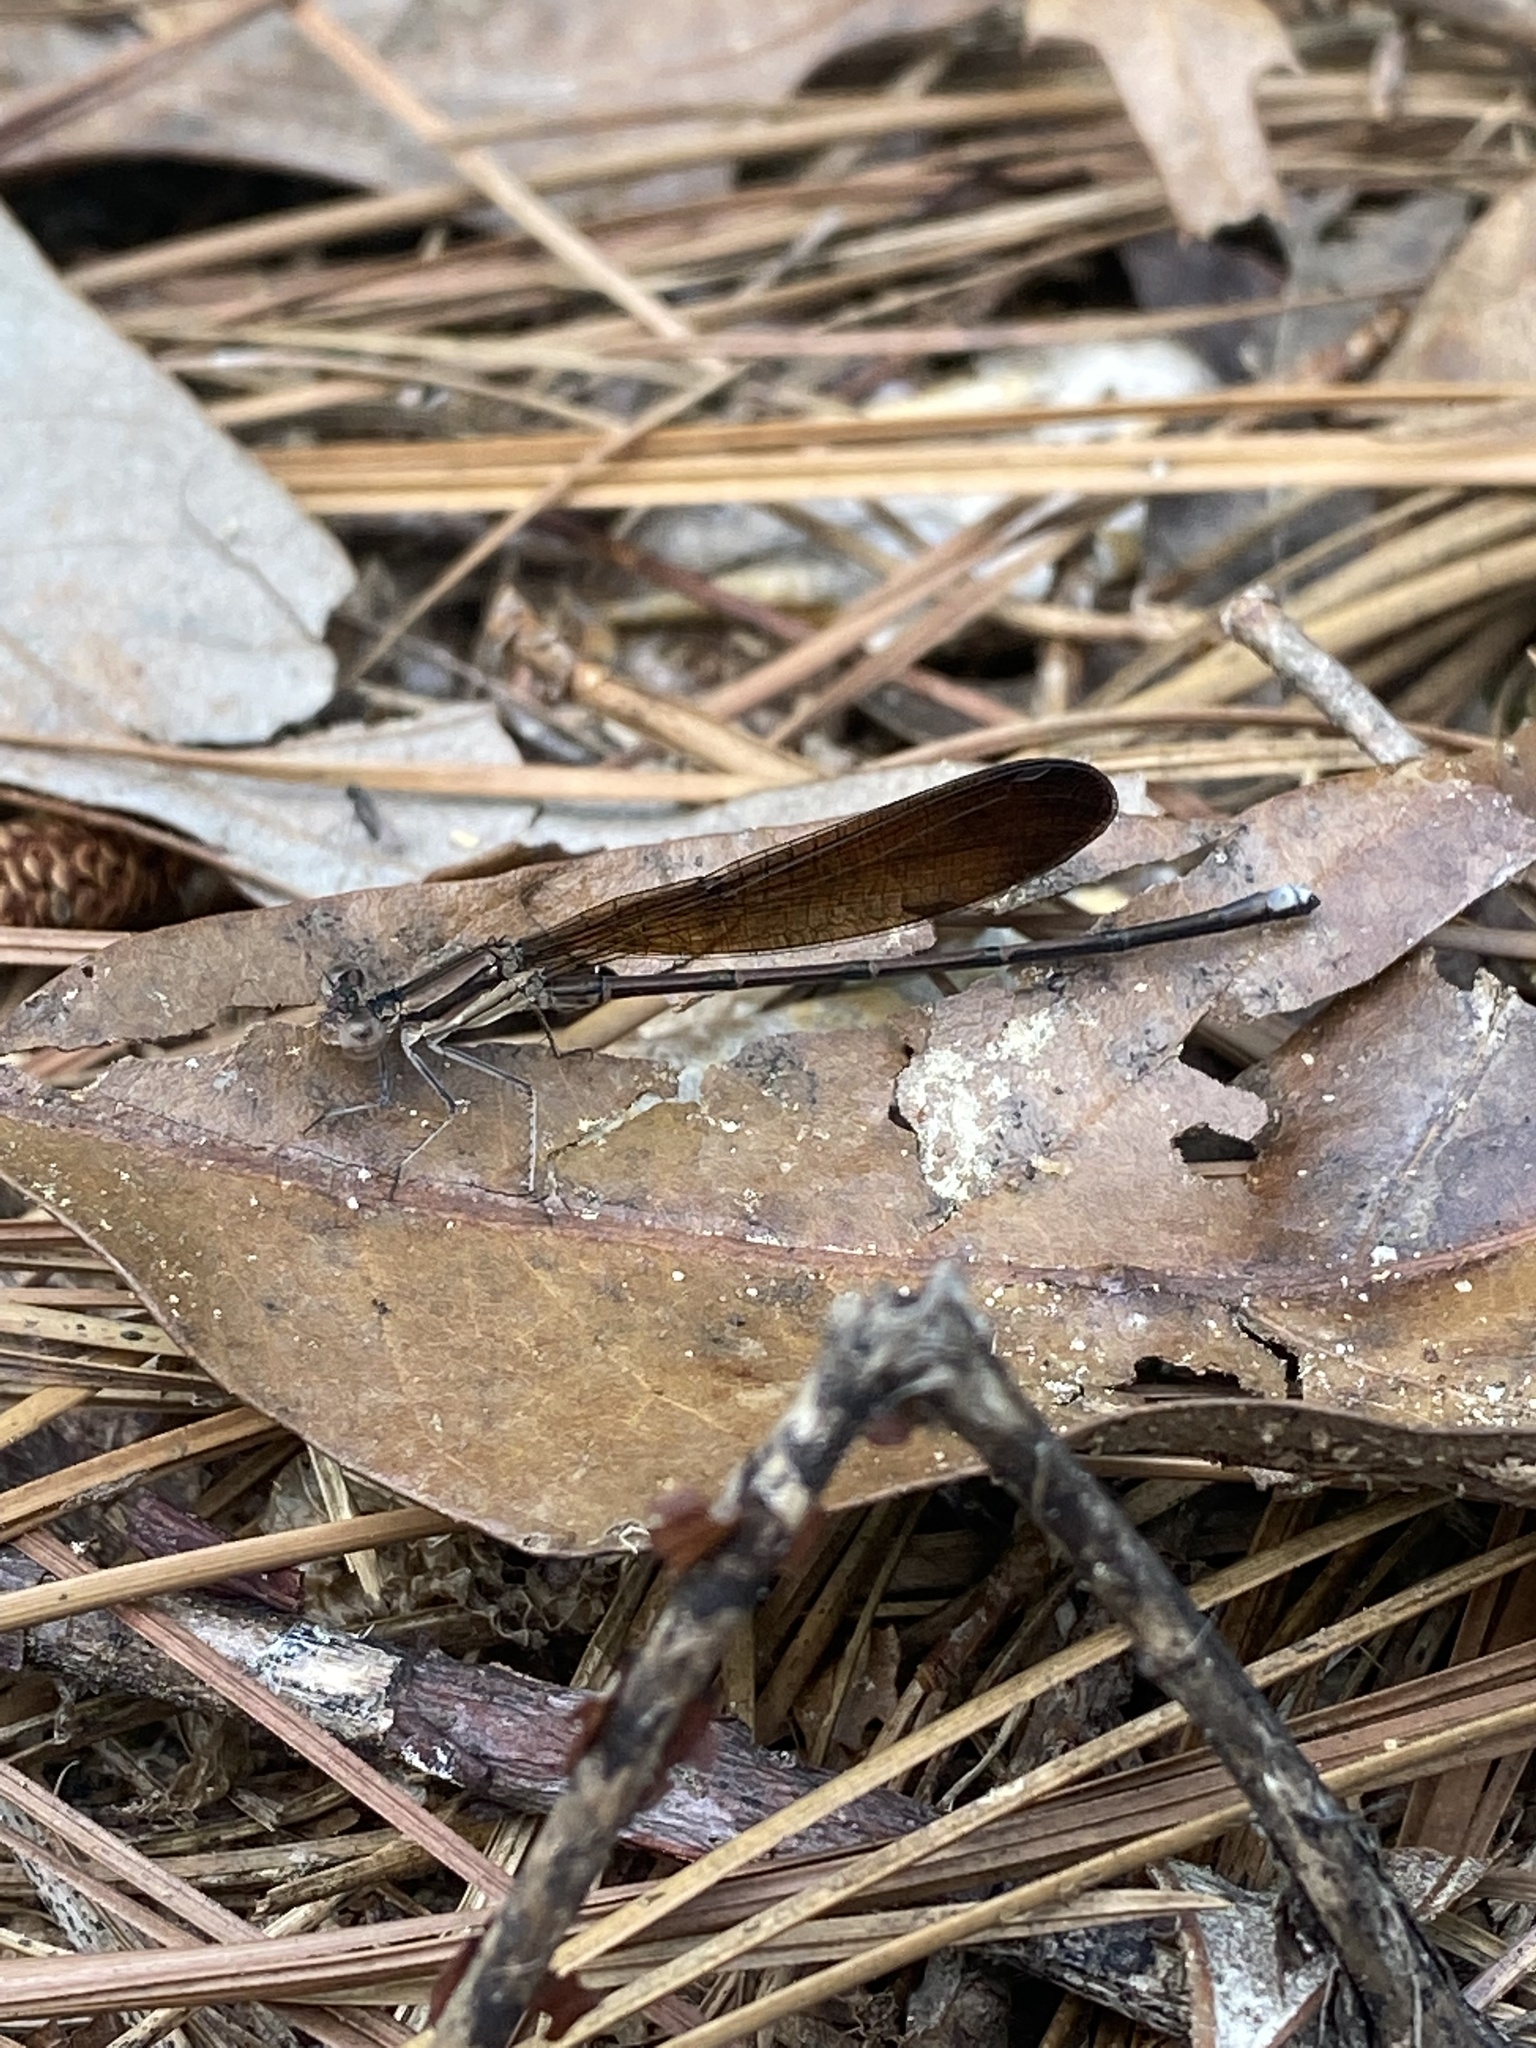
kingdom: Animalia
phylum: Arthropoda
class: Insecta
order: Odonata
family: Coenagrionidae
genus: Argia
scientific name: Argia fumipennis
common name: Variable dancer
